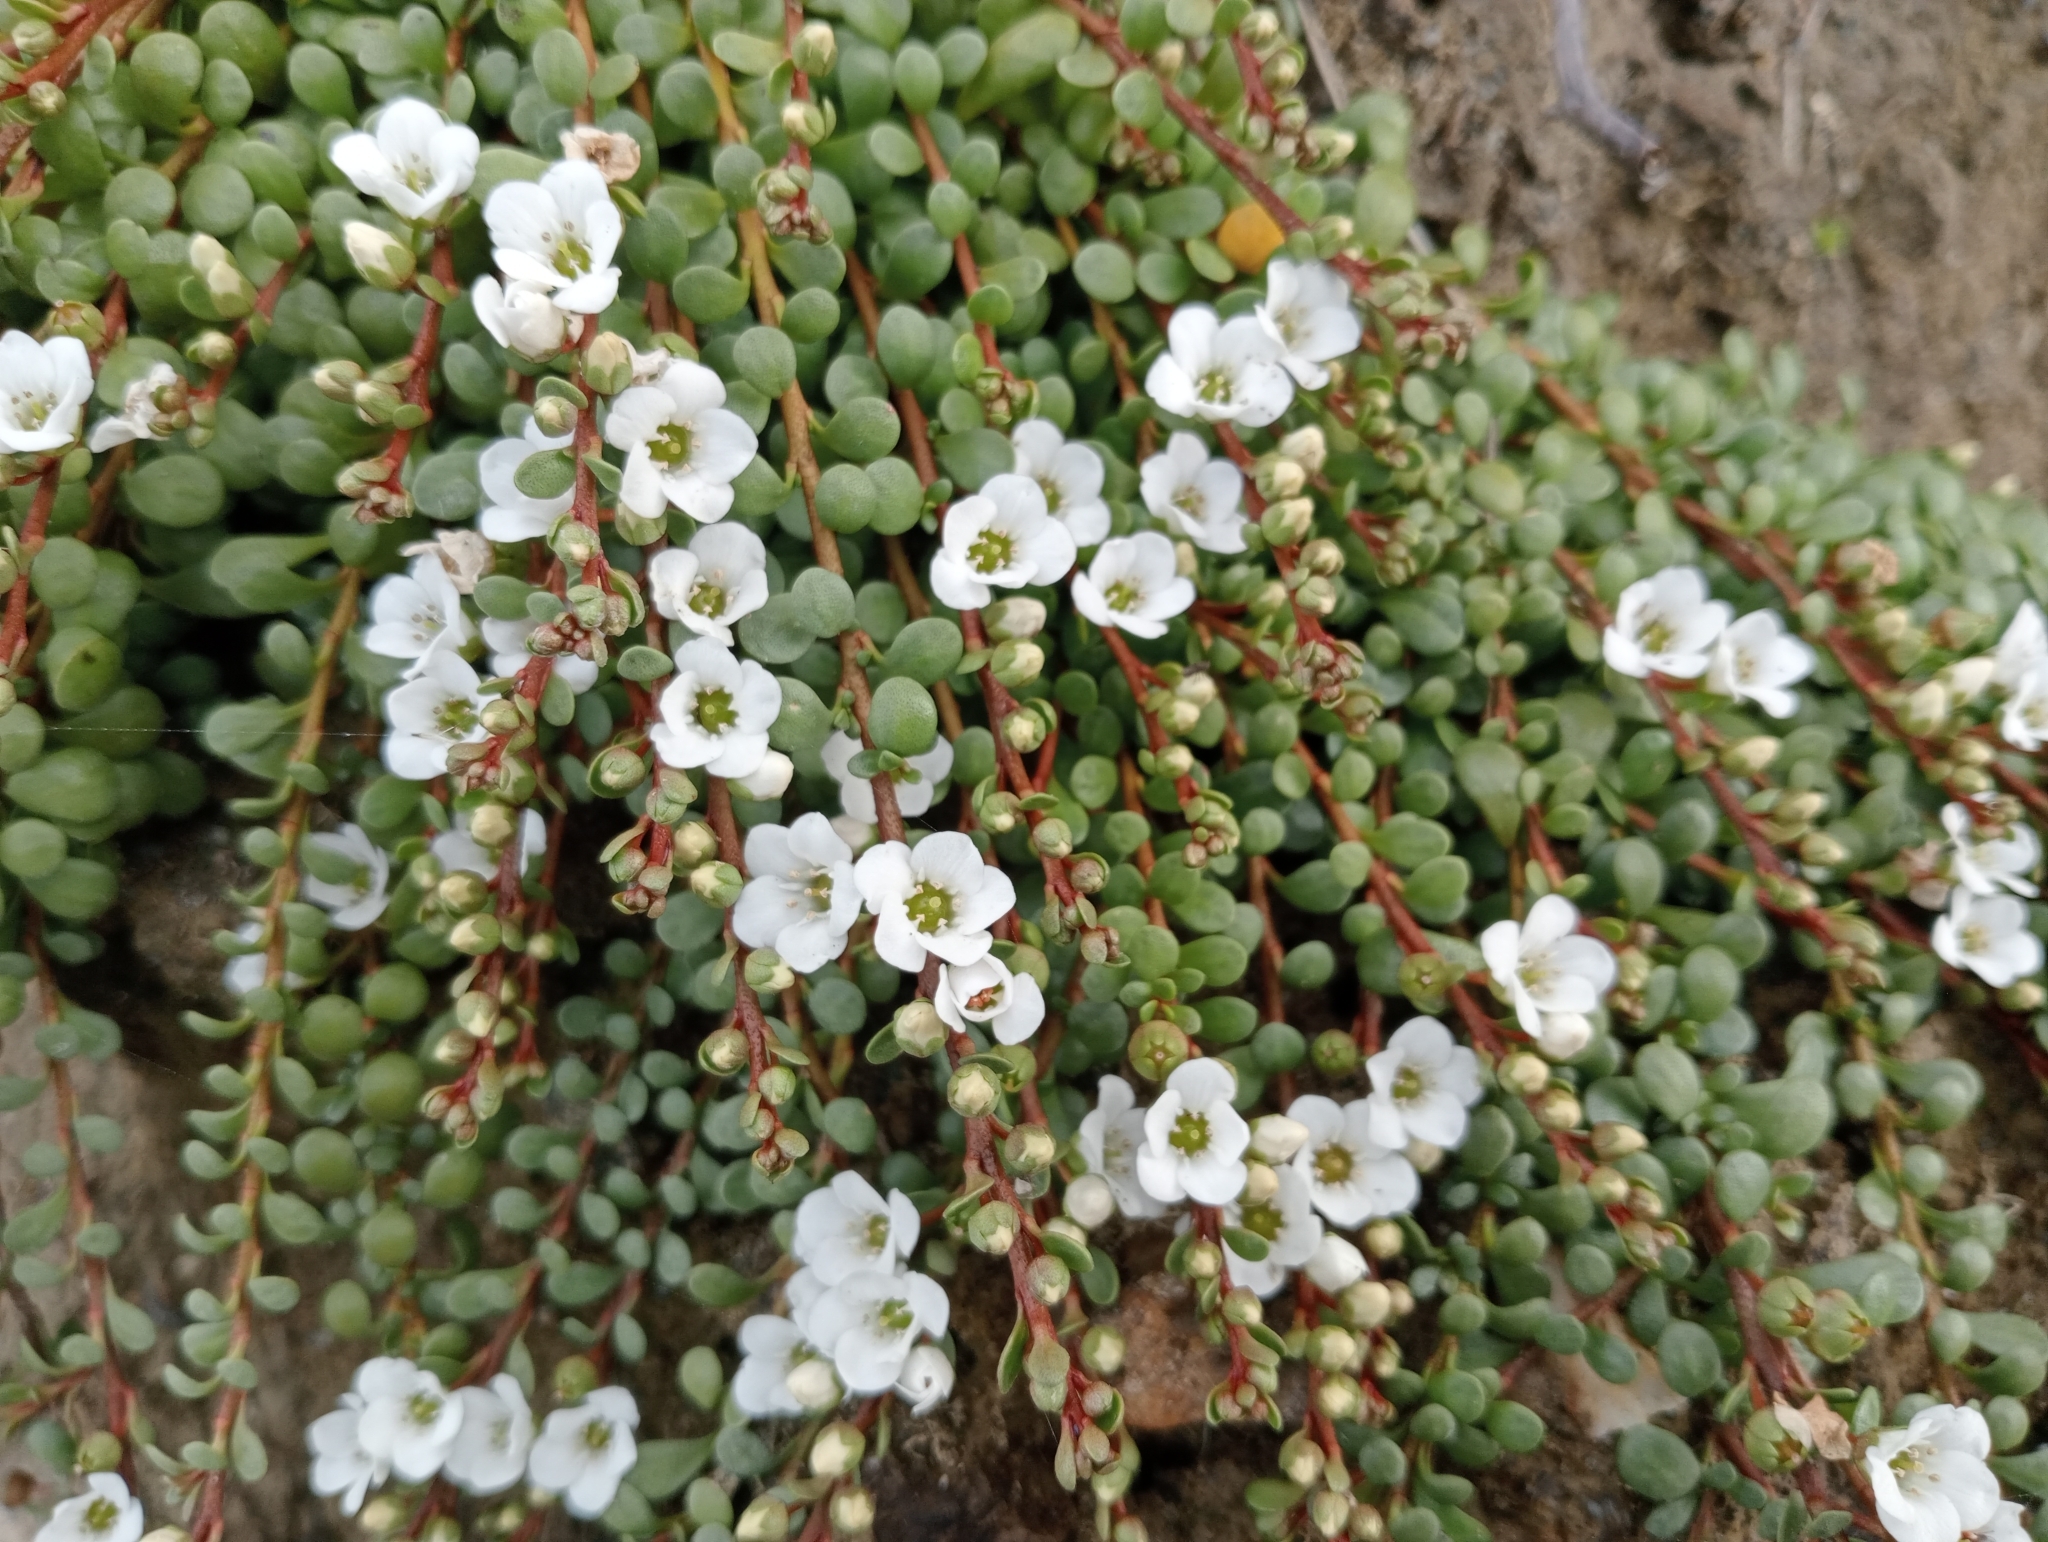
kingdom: Plantae
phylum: Tracheophyta
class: Magnoliopsida
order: Ericales
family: Primulaceae
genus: Samolus
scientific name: Samolus repens
